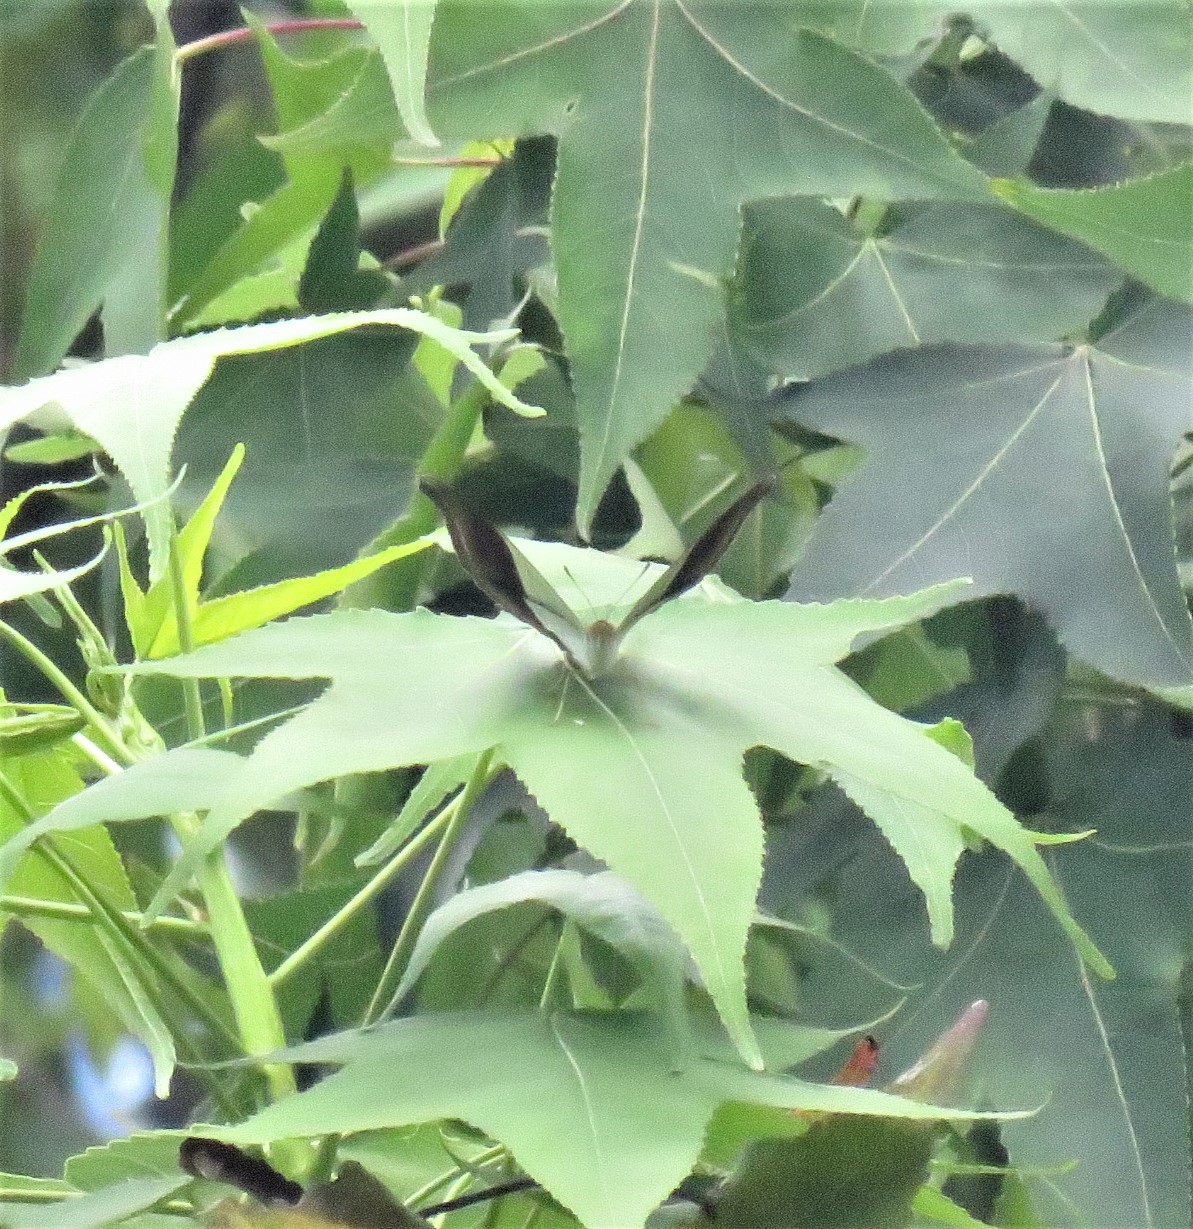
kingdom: Animalia
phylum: Arthropoda
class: Insecta
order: Lepidoptera
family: Nymphalidae
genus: Marpesia
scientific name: Marpesia zerynthia
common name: Waiter daggerwing
